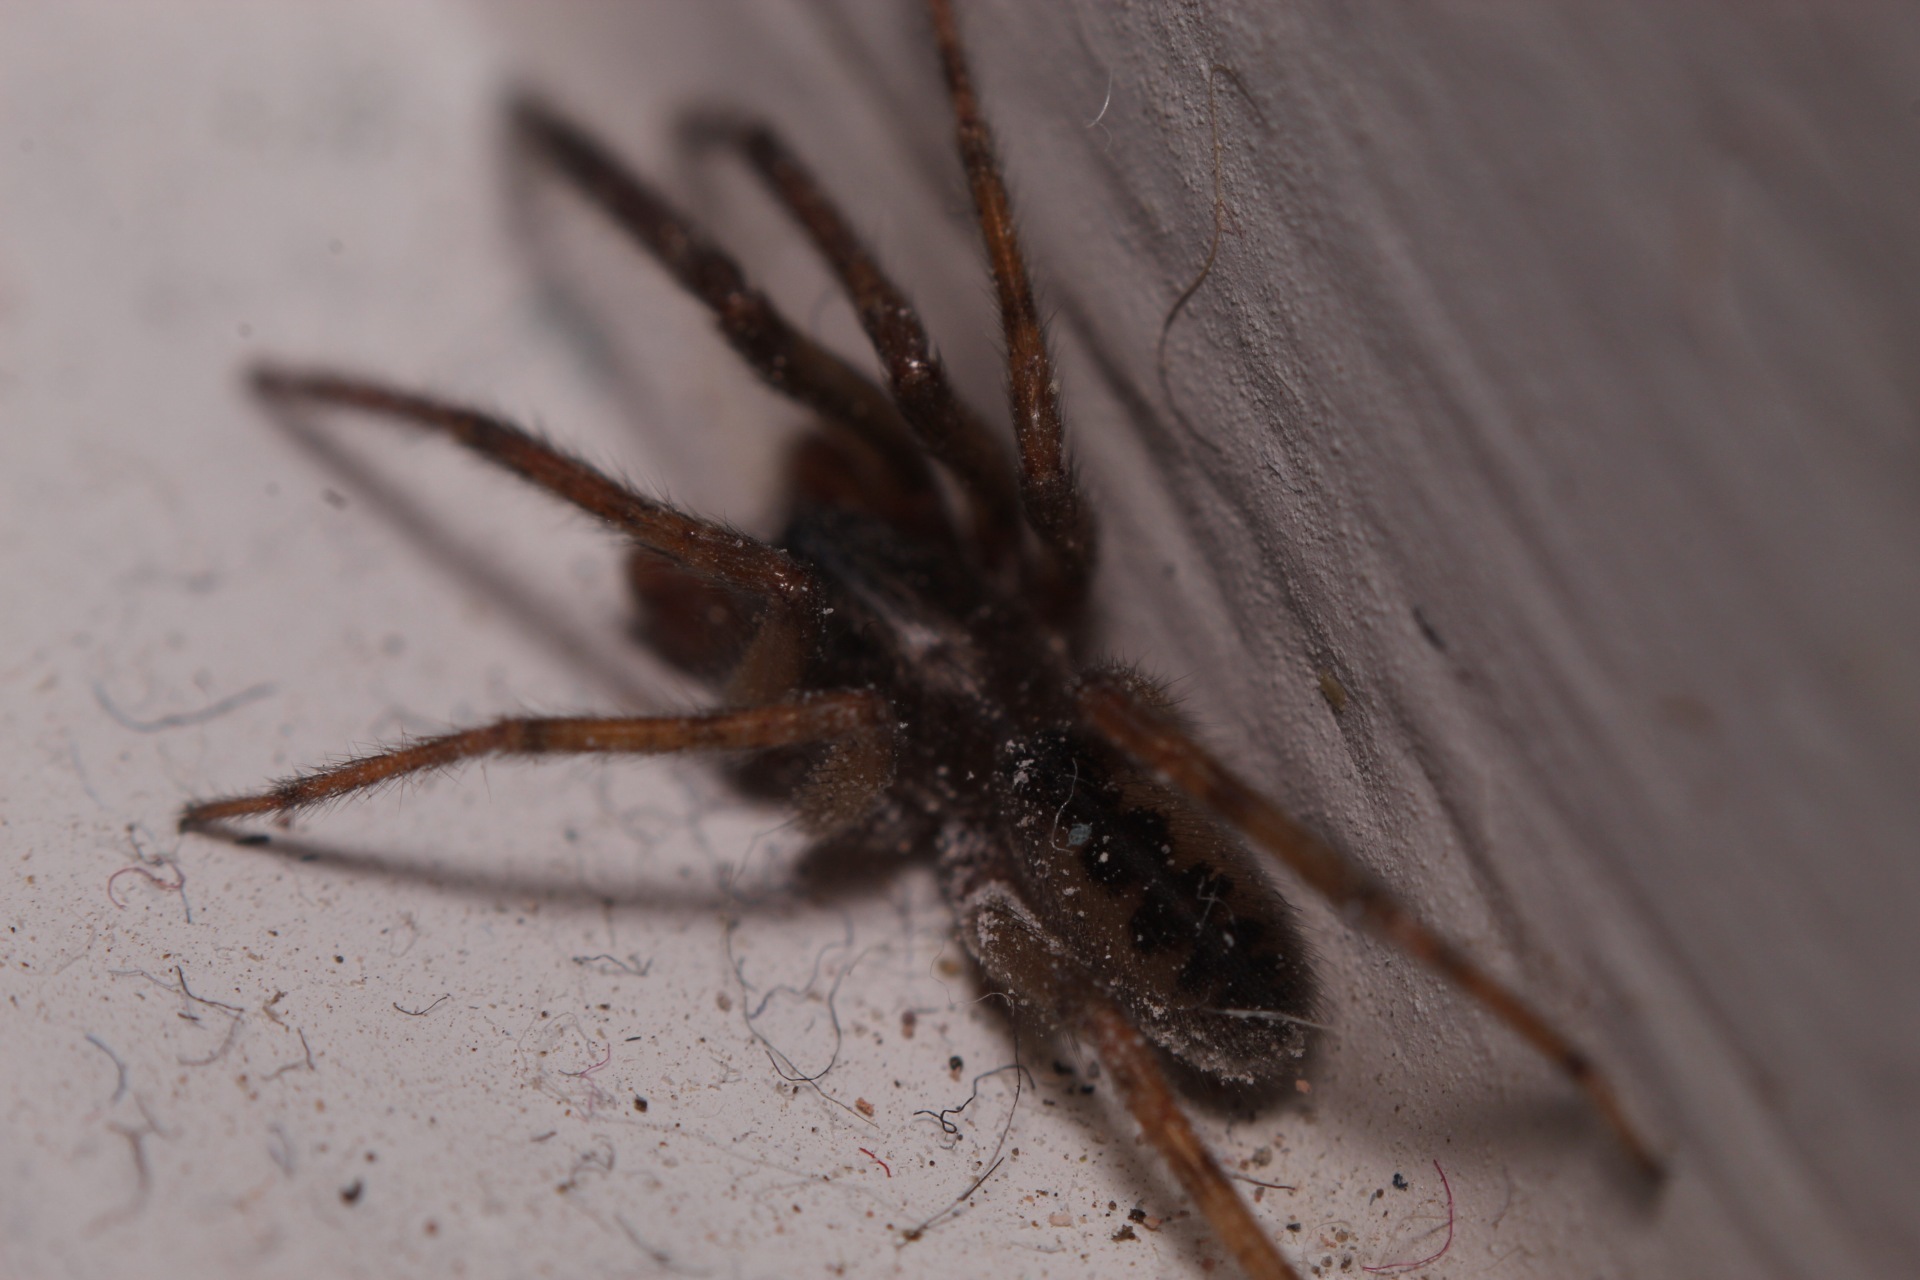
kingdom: Animalia
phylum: Arthropoda
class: Arachnida
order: Araneae
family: Segestriidae
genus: Segestria
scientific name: Segestria senoculata
